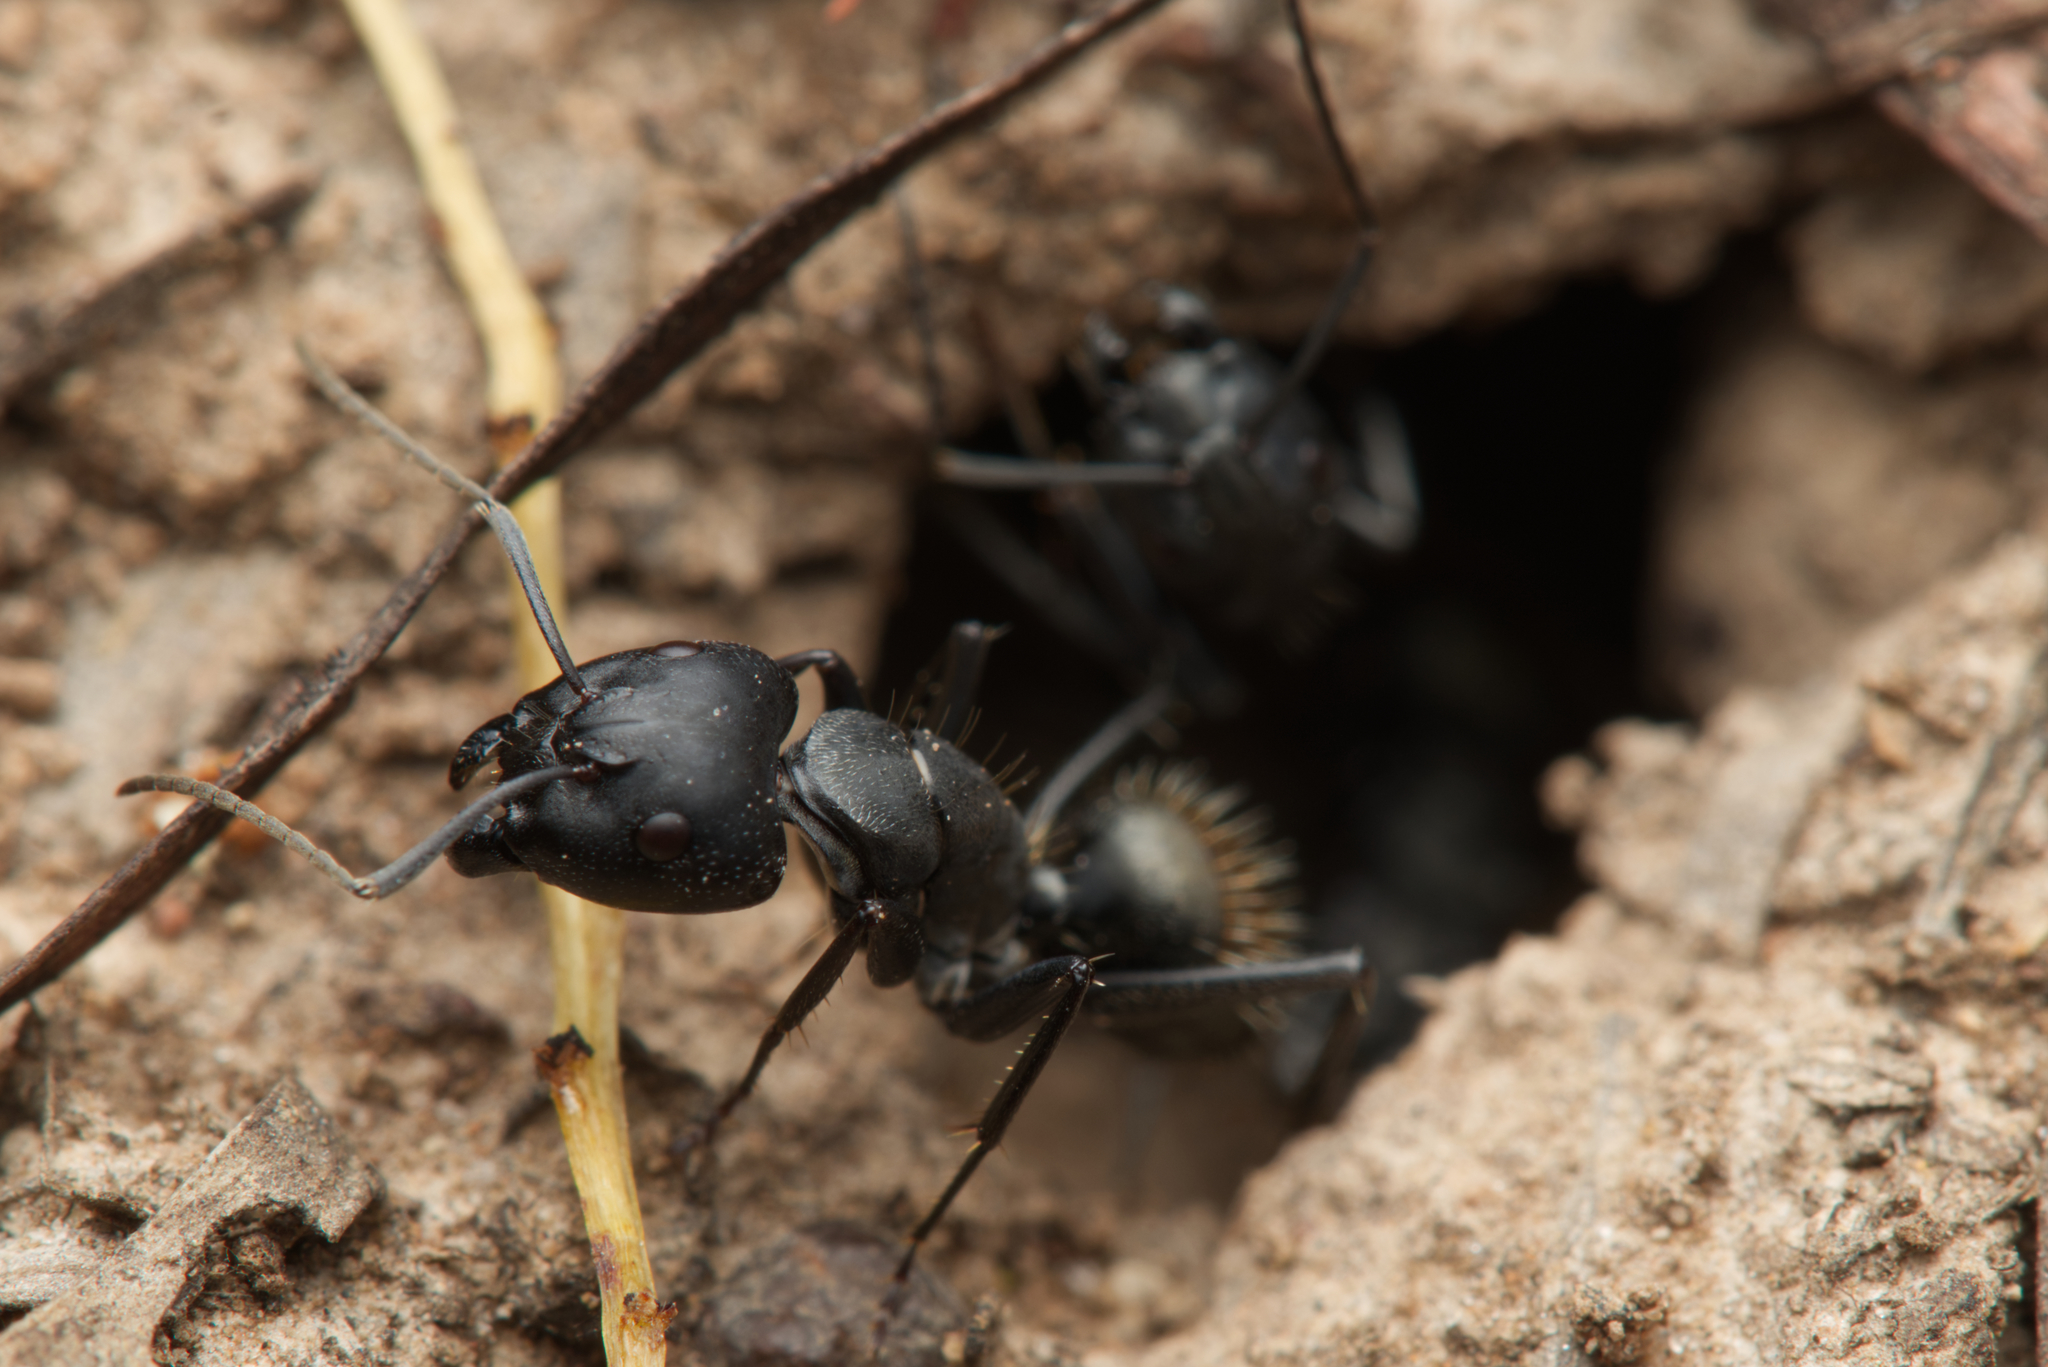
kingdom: Animalia
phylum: Arthropoda
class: Insecta
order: Hymenoptera
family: Formicidae
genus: Camponotus
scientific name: Camponotus aeneopilosus
